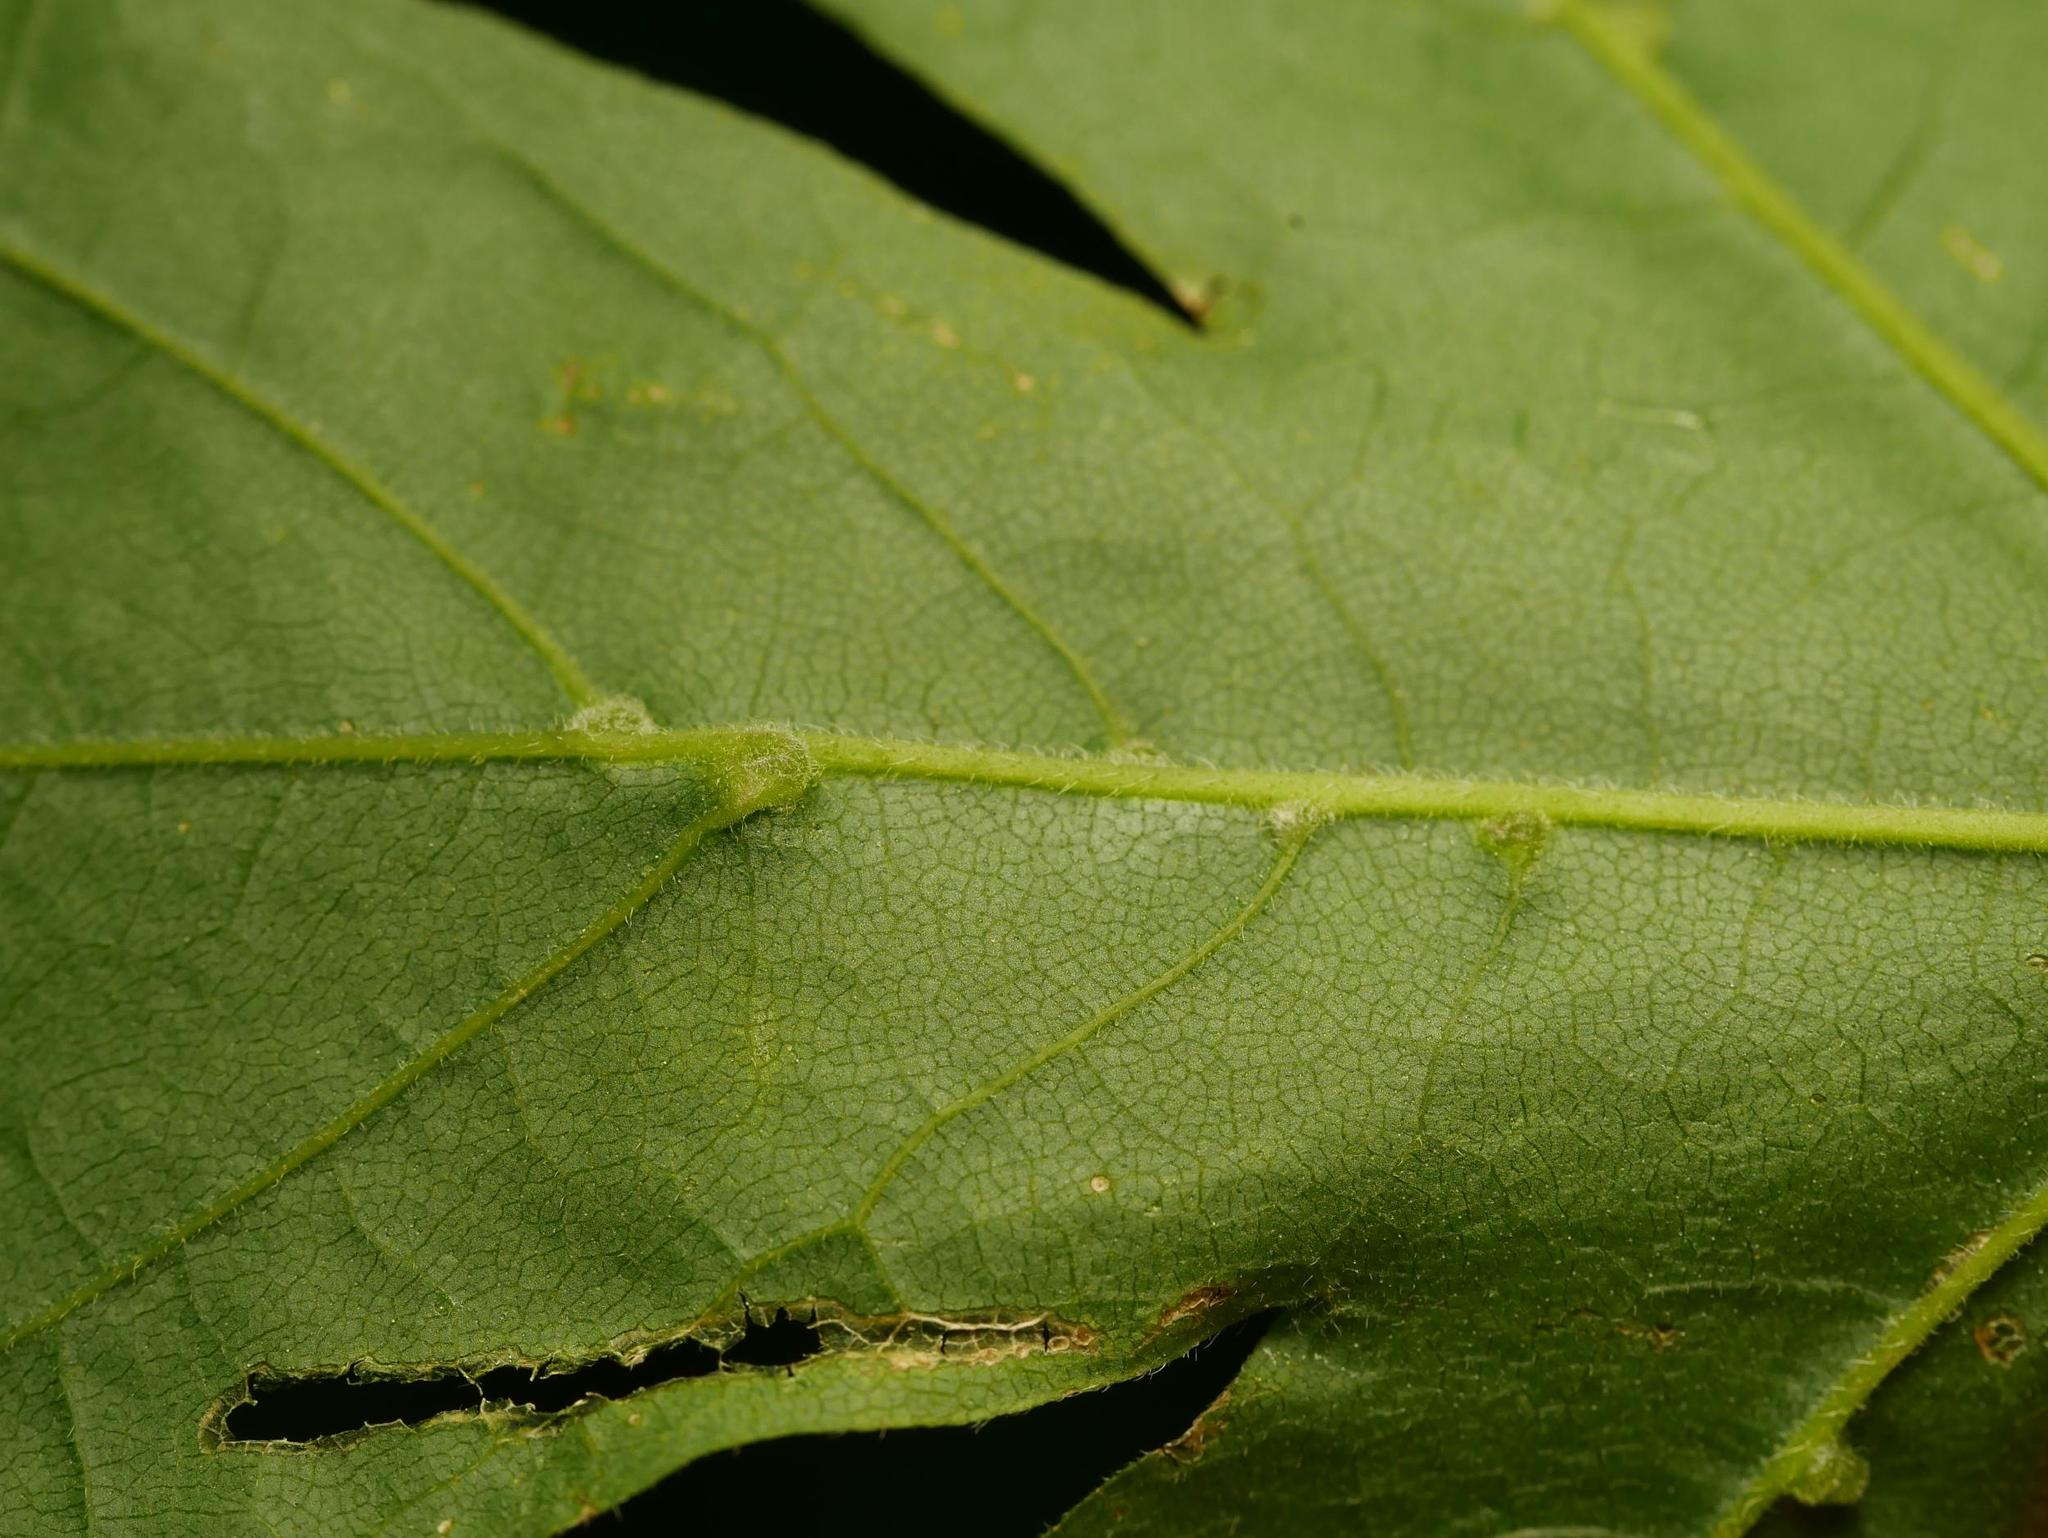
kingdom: Animalia
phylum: Arthropoda
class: Arachnida
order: Trombidiformes
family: Eriophyidae
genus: Aceria
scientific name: Aceria macrochelus
